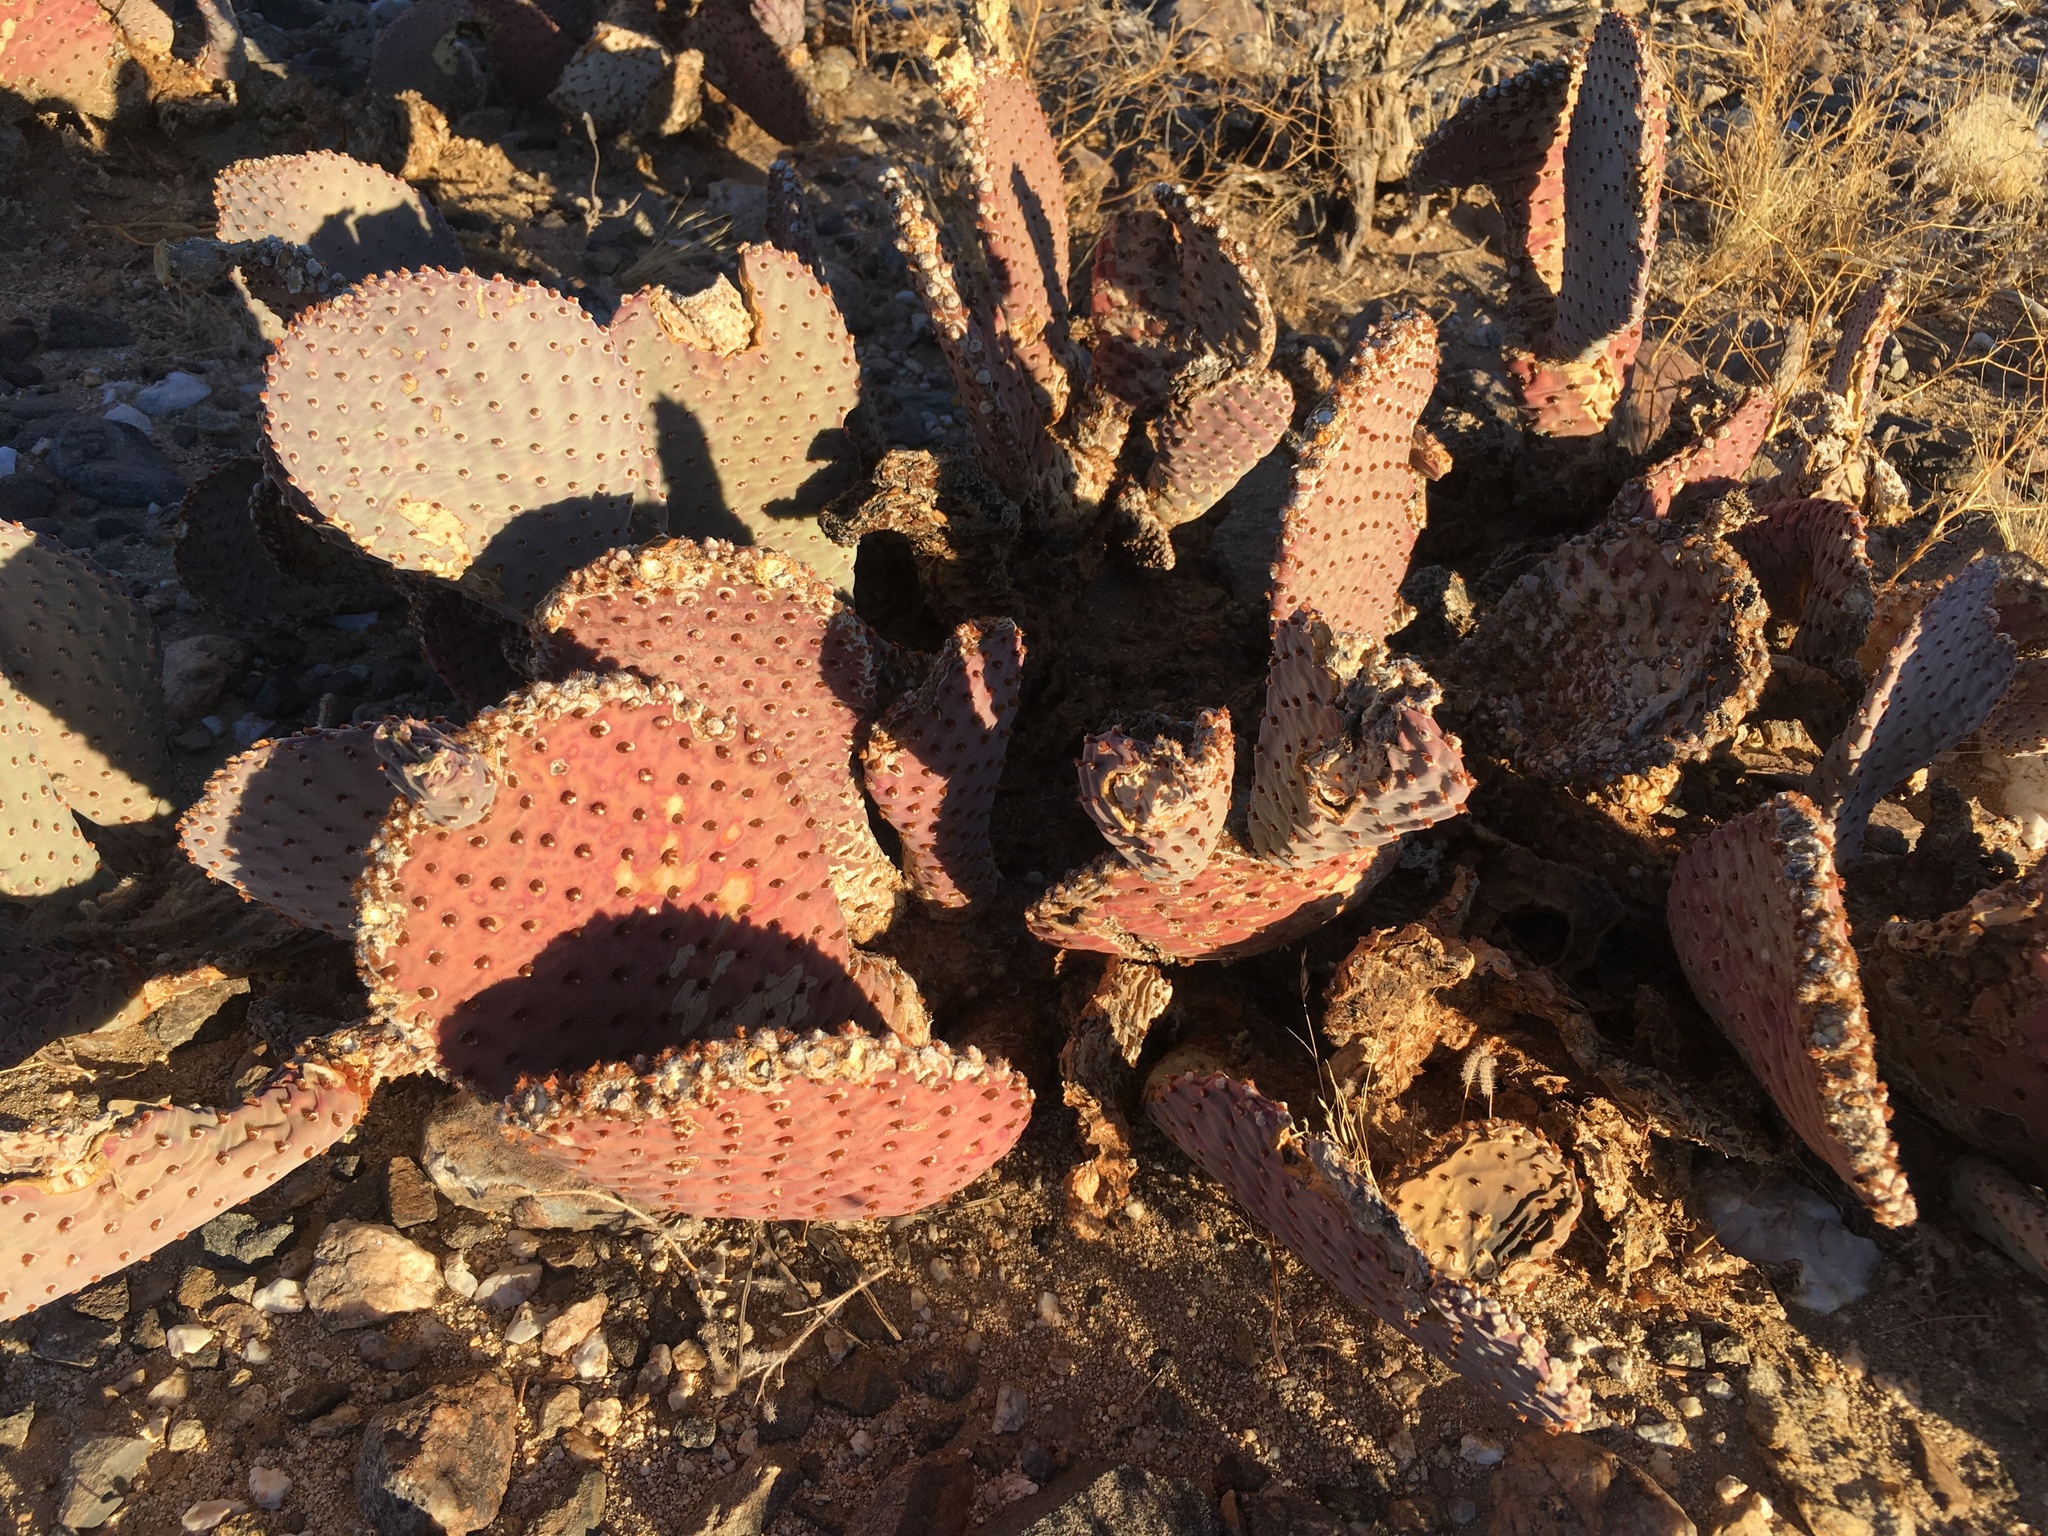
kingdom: Plantae
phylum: Tracheophyta
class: Magnoliopsida
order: Caryophyllales
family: Cactaceae
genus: Opuntia
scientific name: Opuntia basilaris
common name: Beavertail prickly-pear
